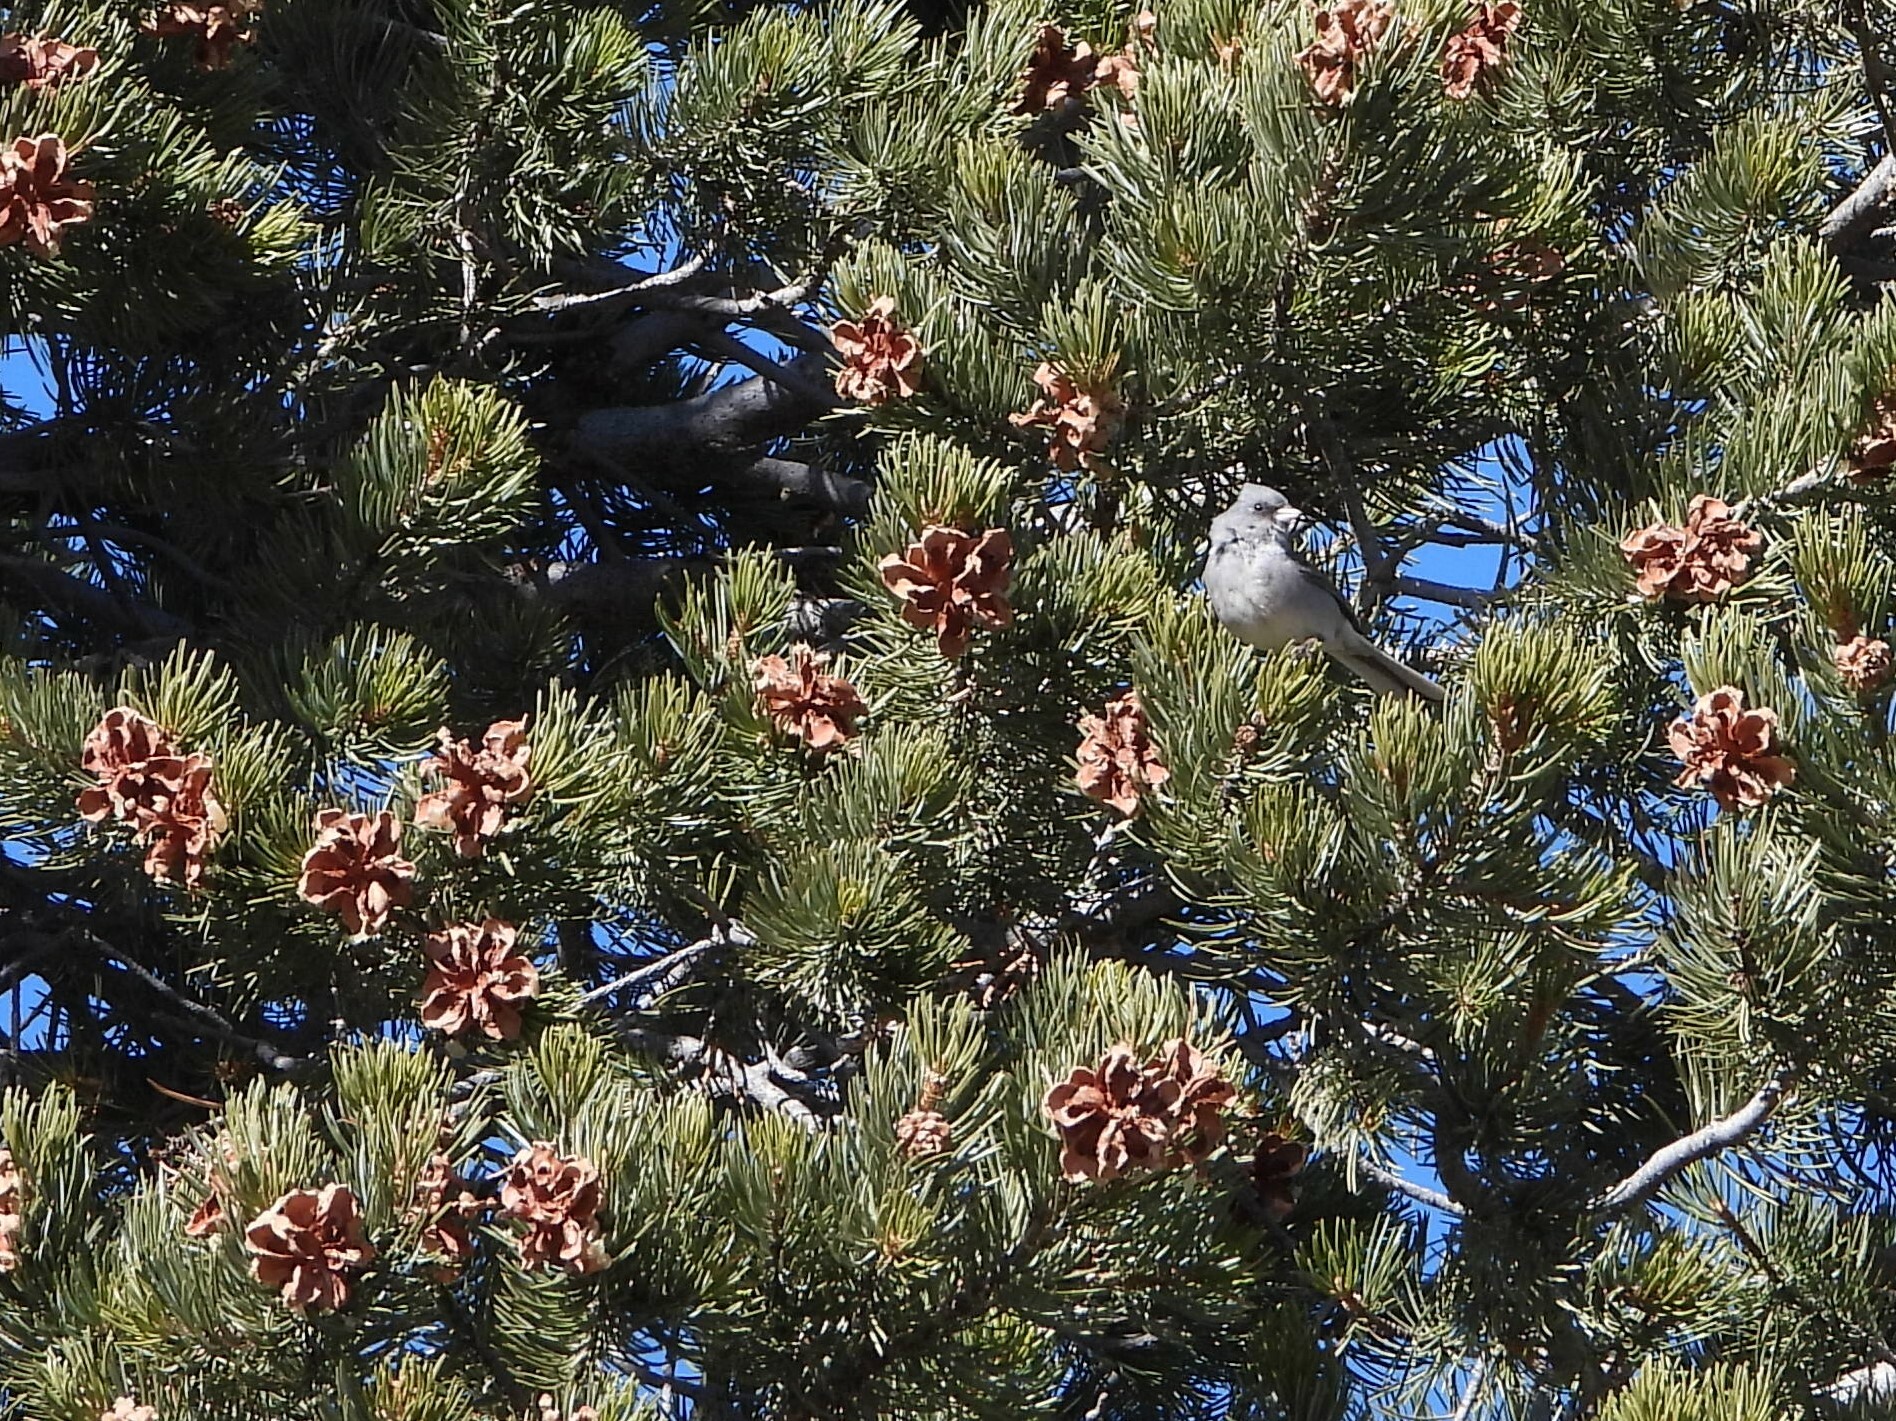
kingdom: Animalia
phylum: Chordata
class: Aves
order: Passeriformes
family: Passerellidae
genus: Junco
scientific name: Junco hyemalis
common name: Dark-eyed junco
